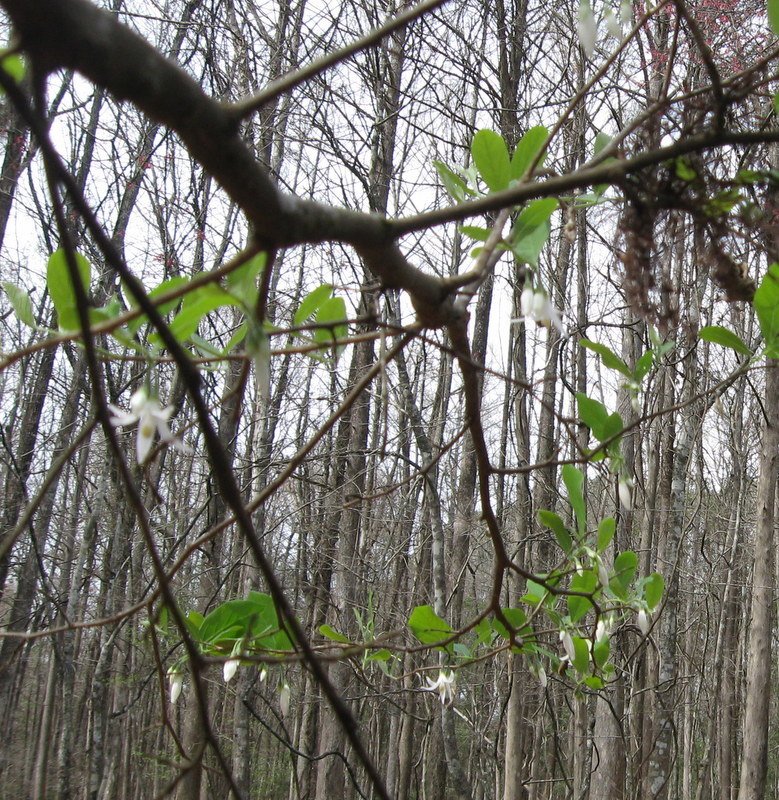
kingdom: Plantae
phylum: Tracheophyta
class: Magnoliopsida
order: Ericales
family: Styracaceae
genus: Styrax
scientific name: Styrax americanus
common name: American snowbell
